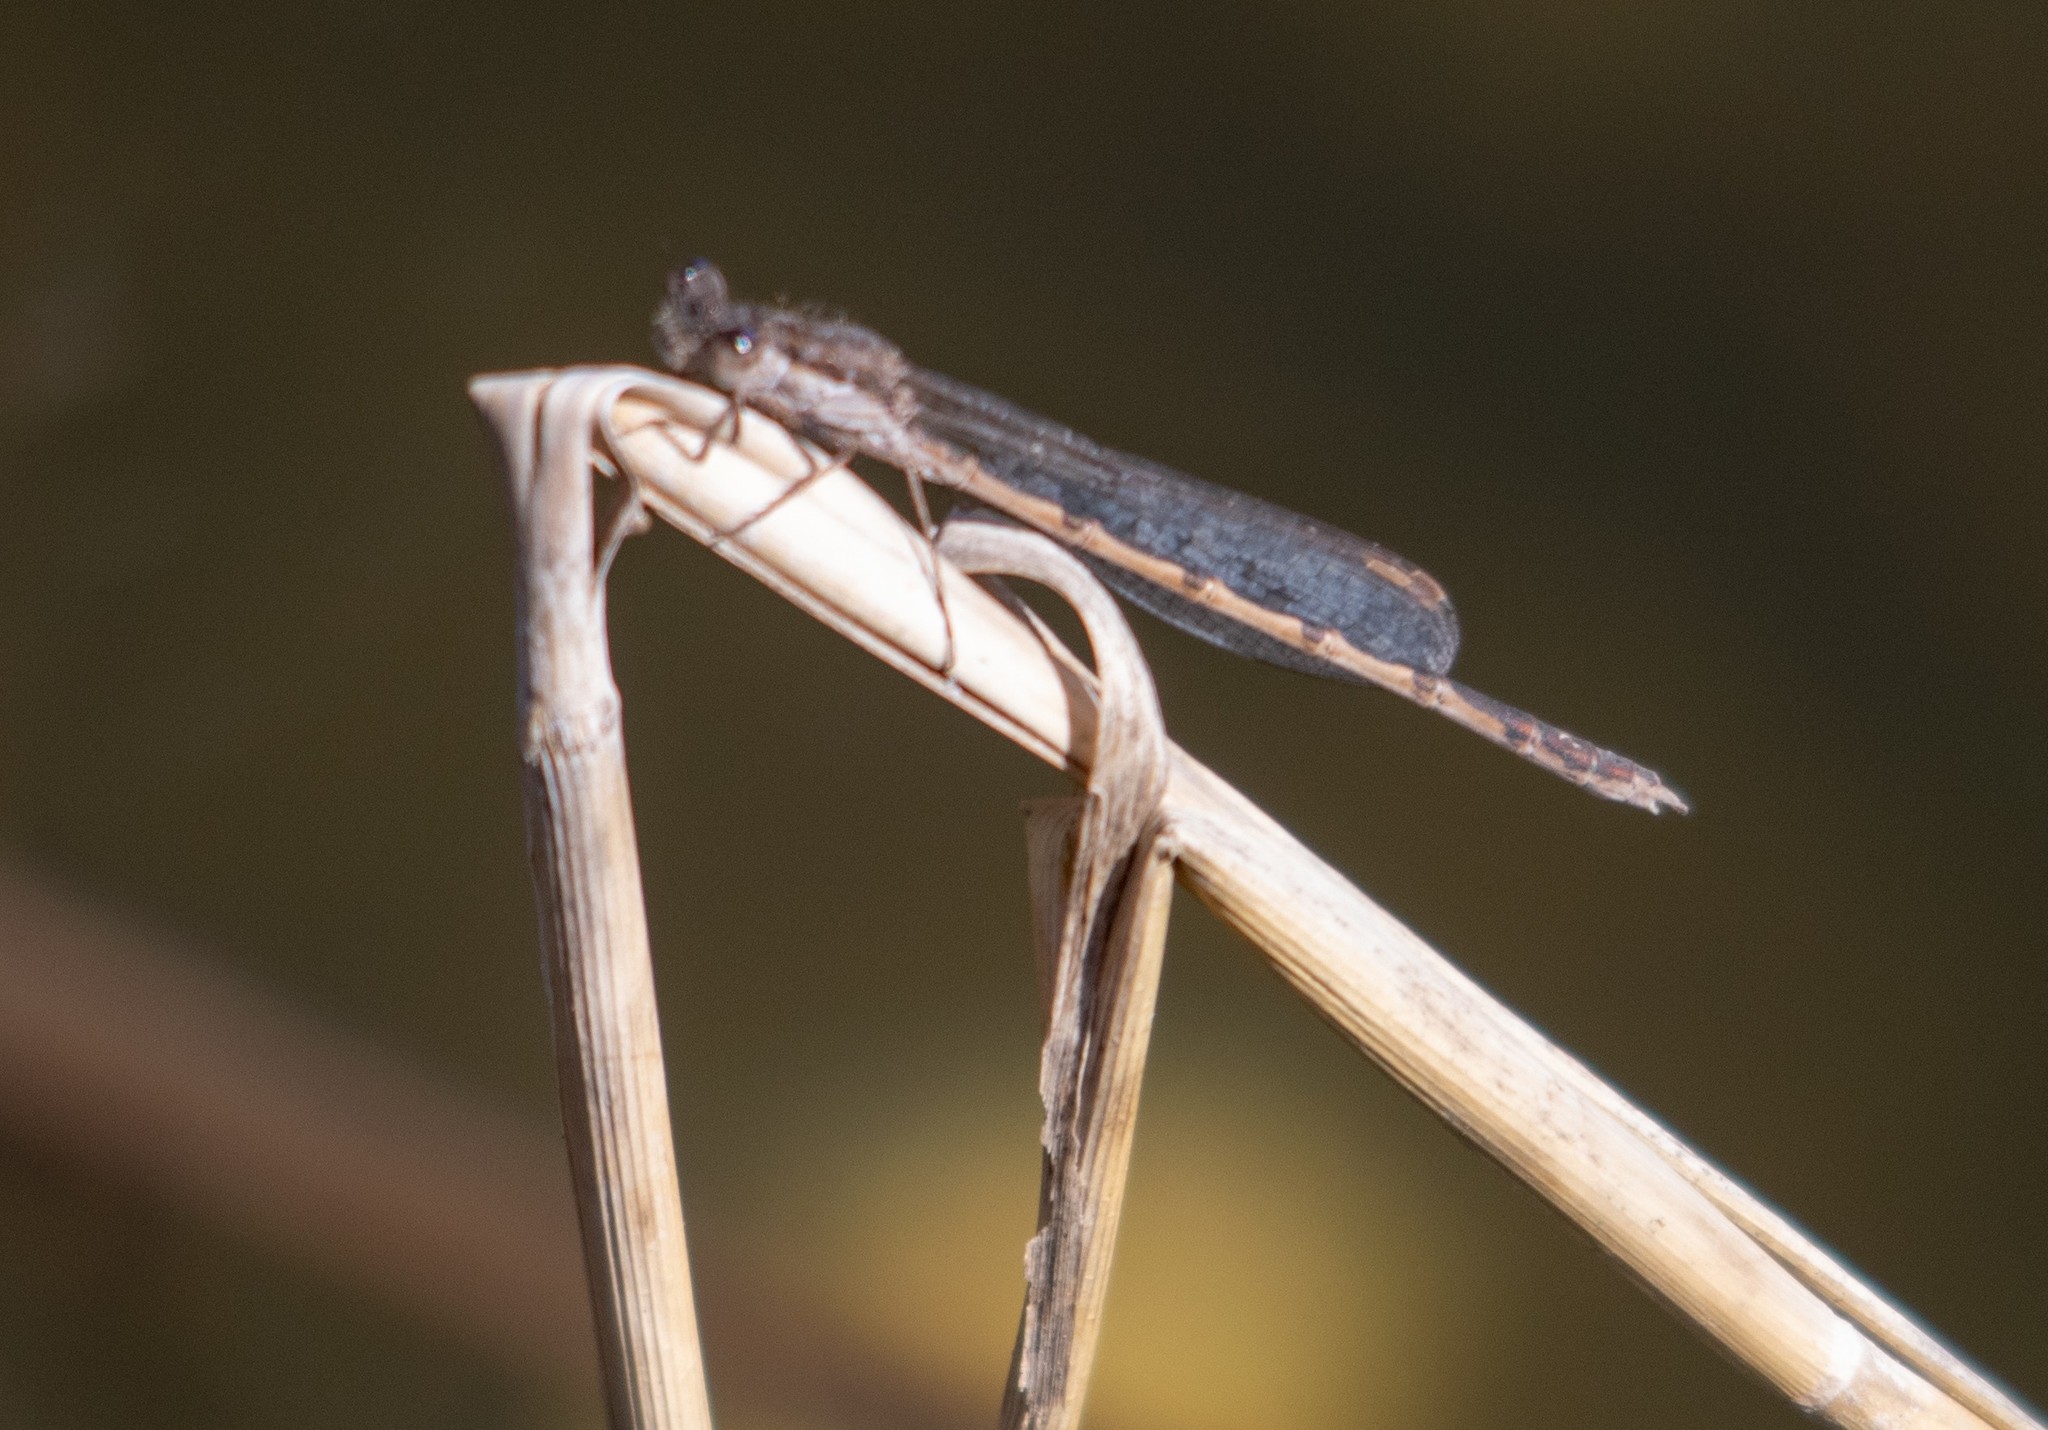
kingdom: Animalia
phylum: Arthropoda
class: Insecta
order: Odonata
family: Lestidae
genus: Sympecma
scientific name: Sympecma fusca
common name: Common winter damsel
